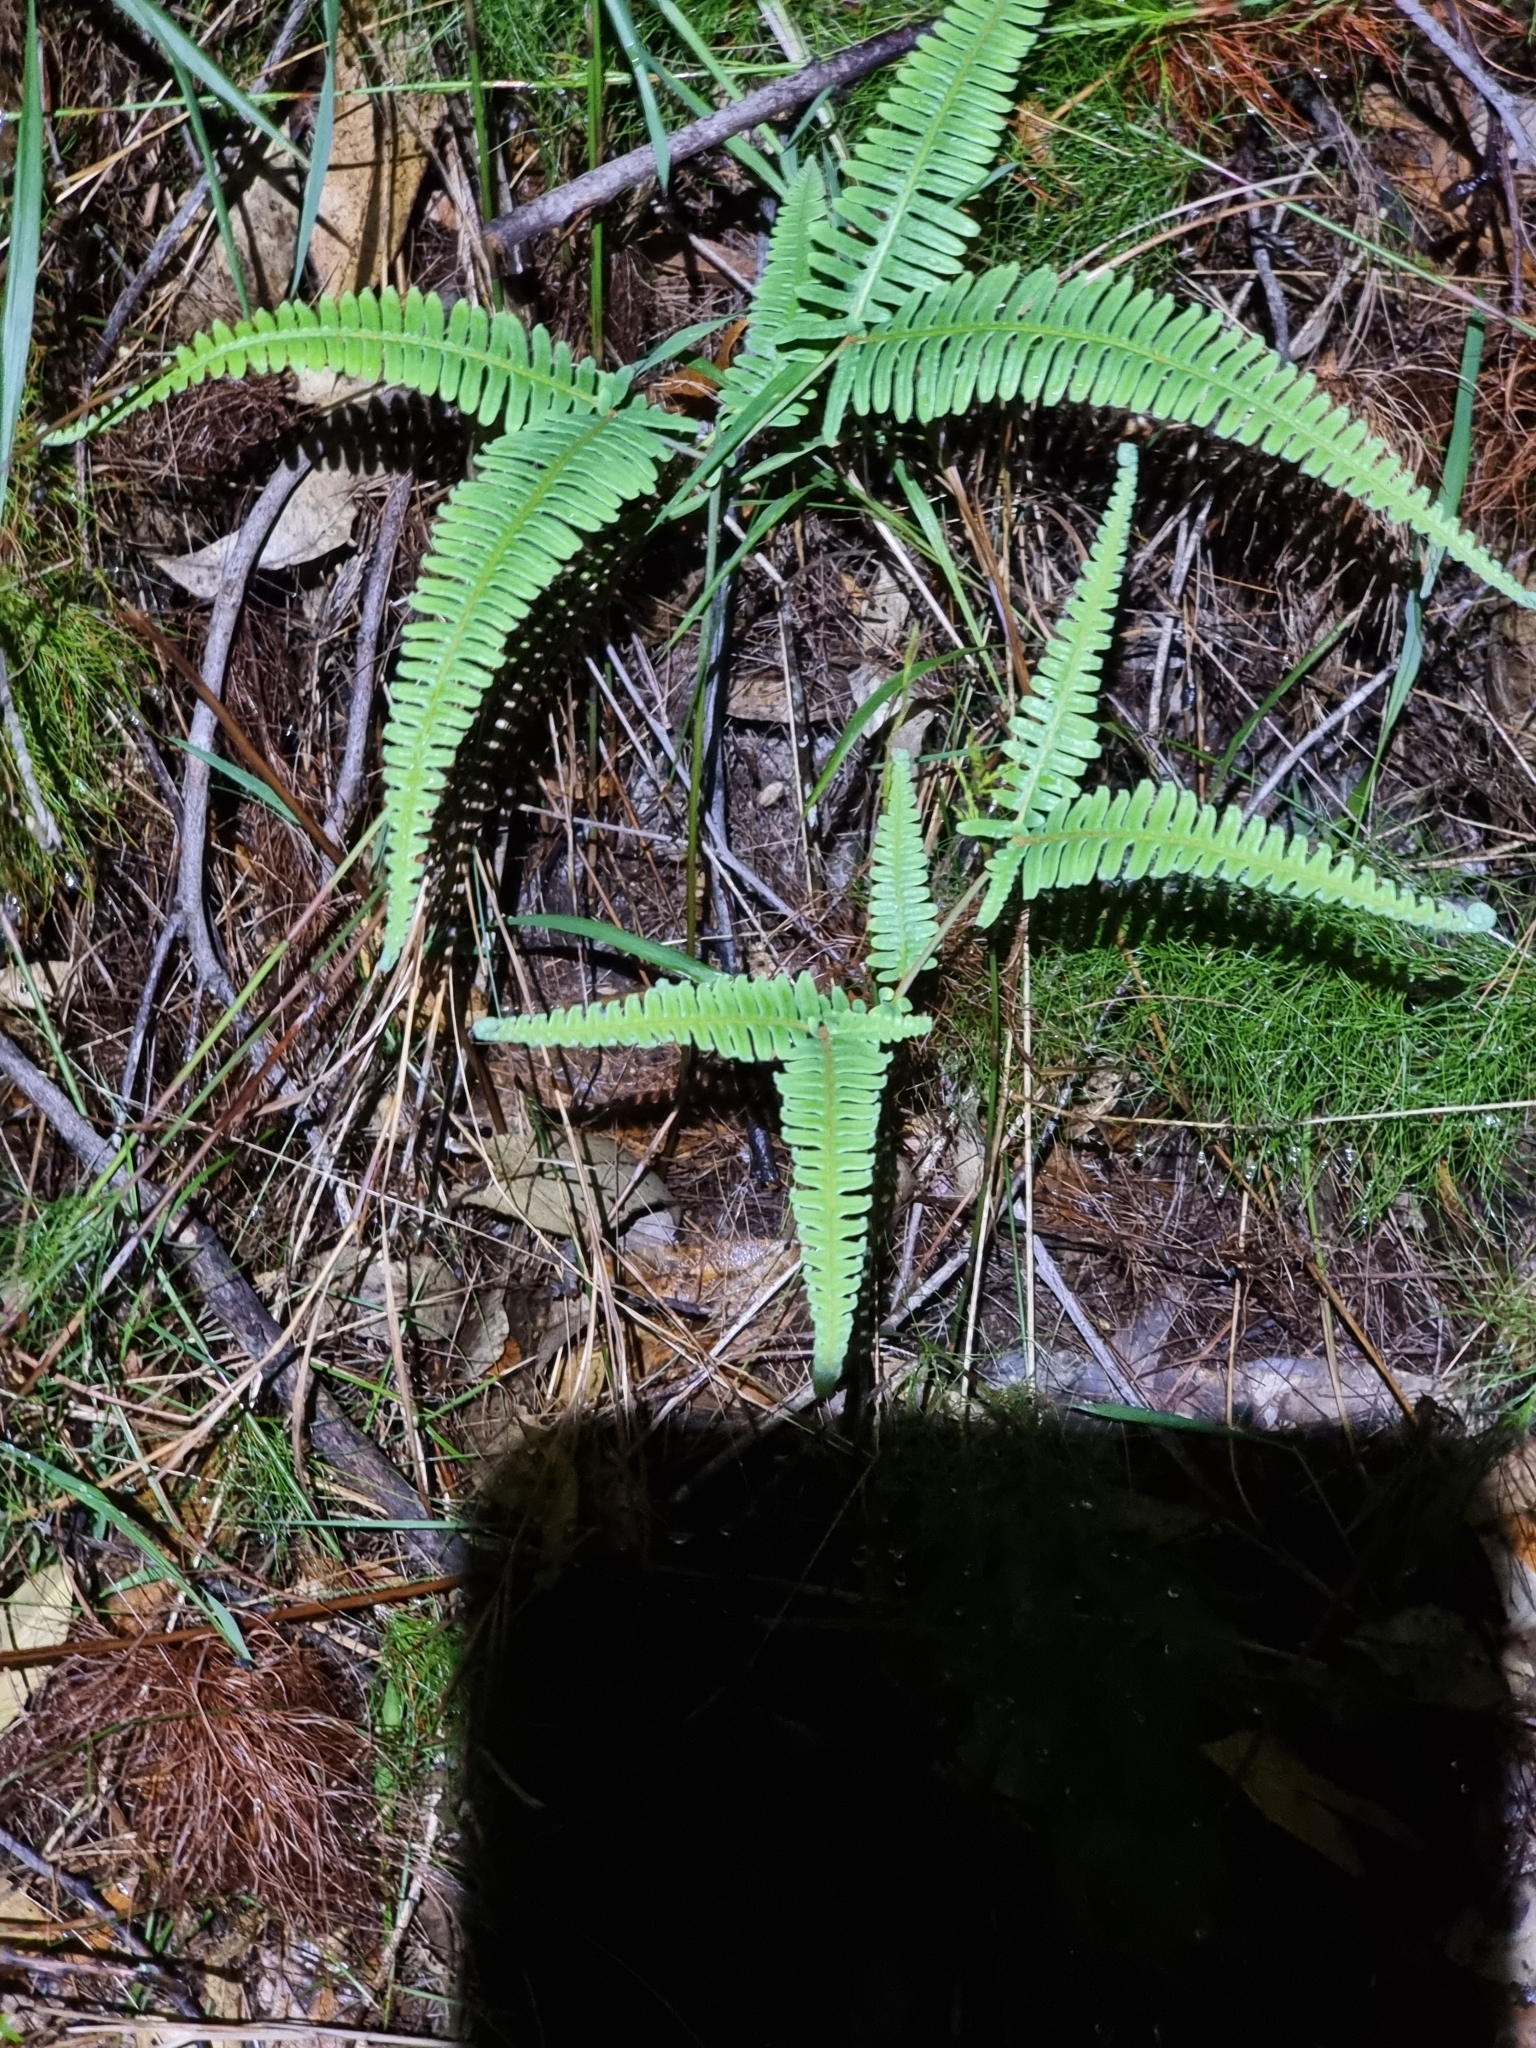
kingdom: Plantae
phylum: Tracheophyta
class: Polypodiopsida
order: Gleicheniales
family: Gleicheniaceae
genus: Dicranopteris
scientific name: Dicranopteris linearis
